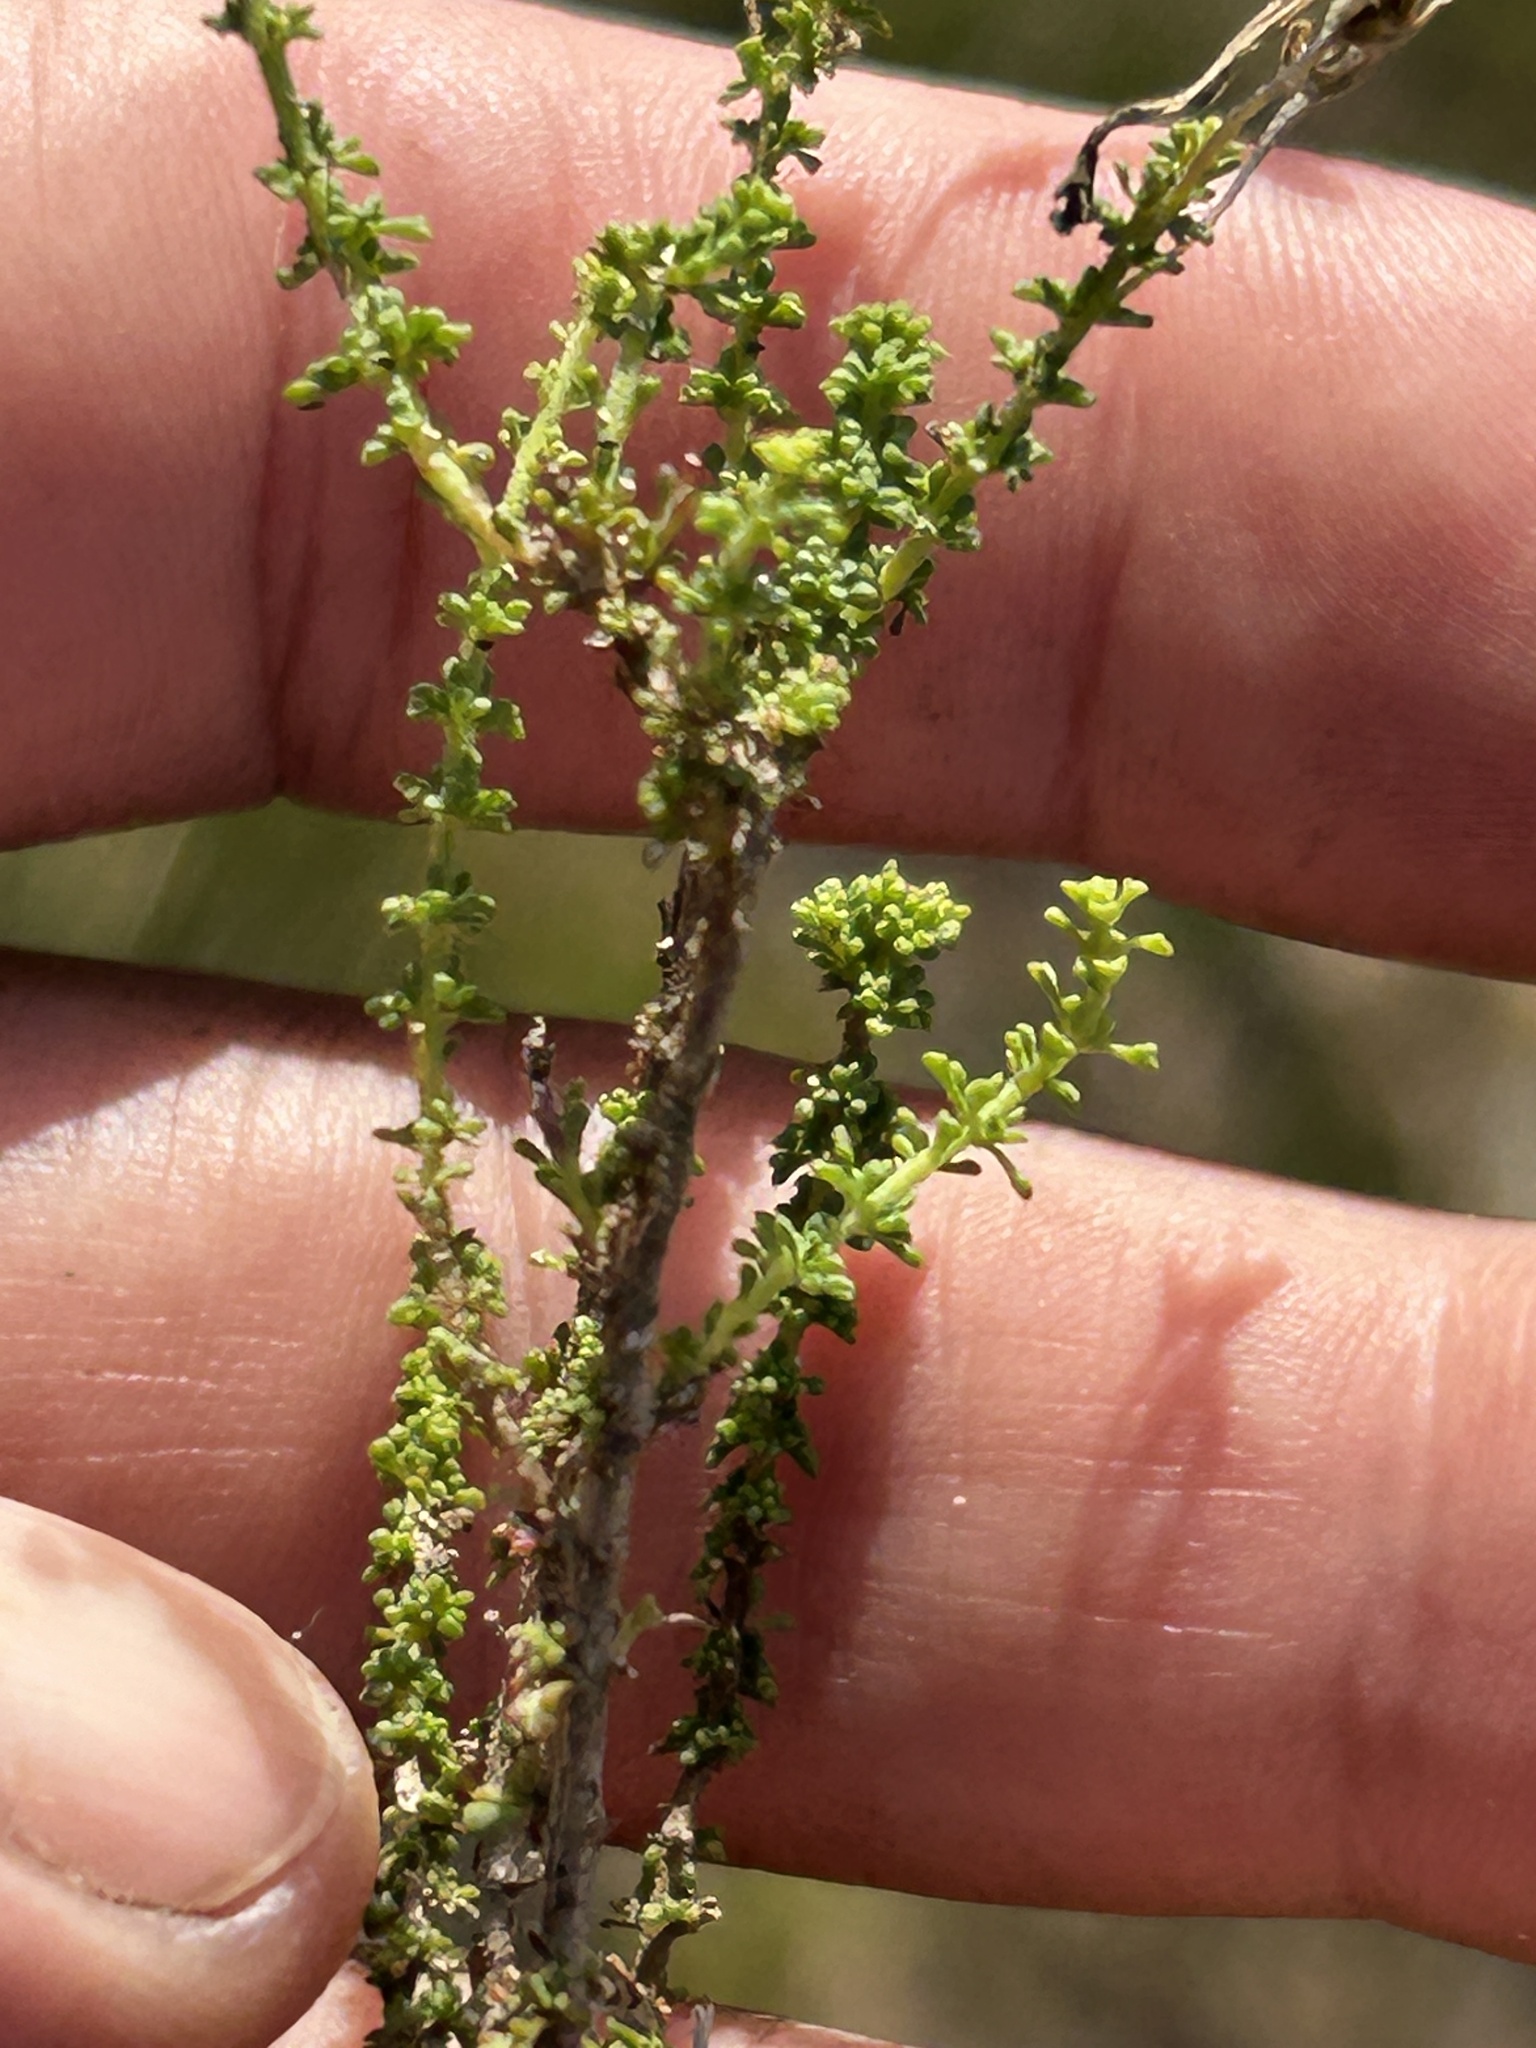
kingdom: Plantae
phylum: Tracheophyta
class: Magnoliopsida
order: Lamiales
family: Scrophulariaceae
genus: Jamesbrittenia
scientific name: Jamesbrittenia calciphila
